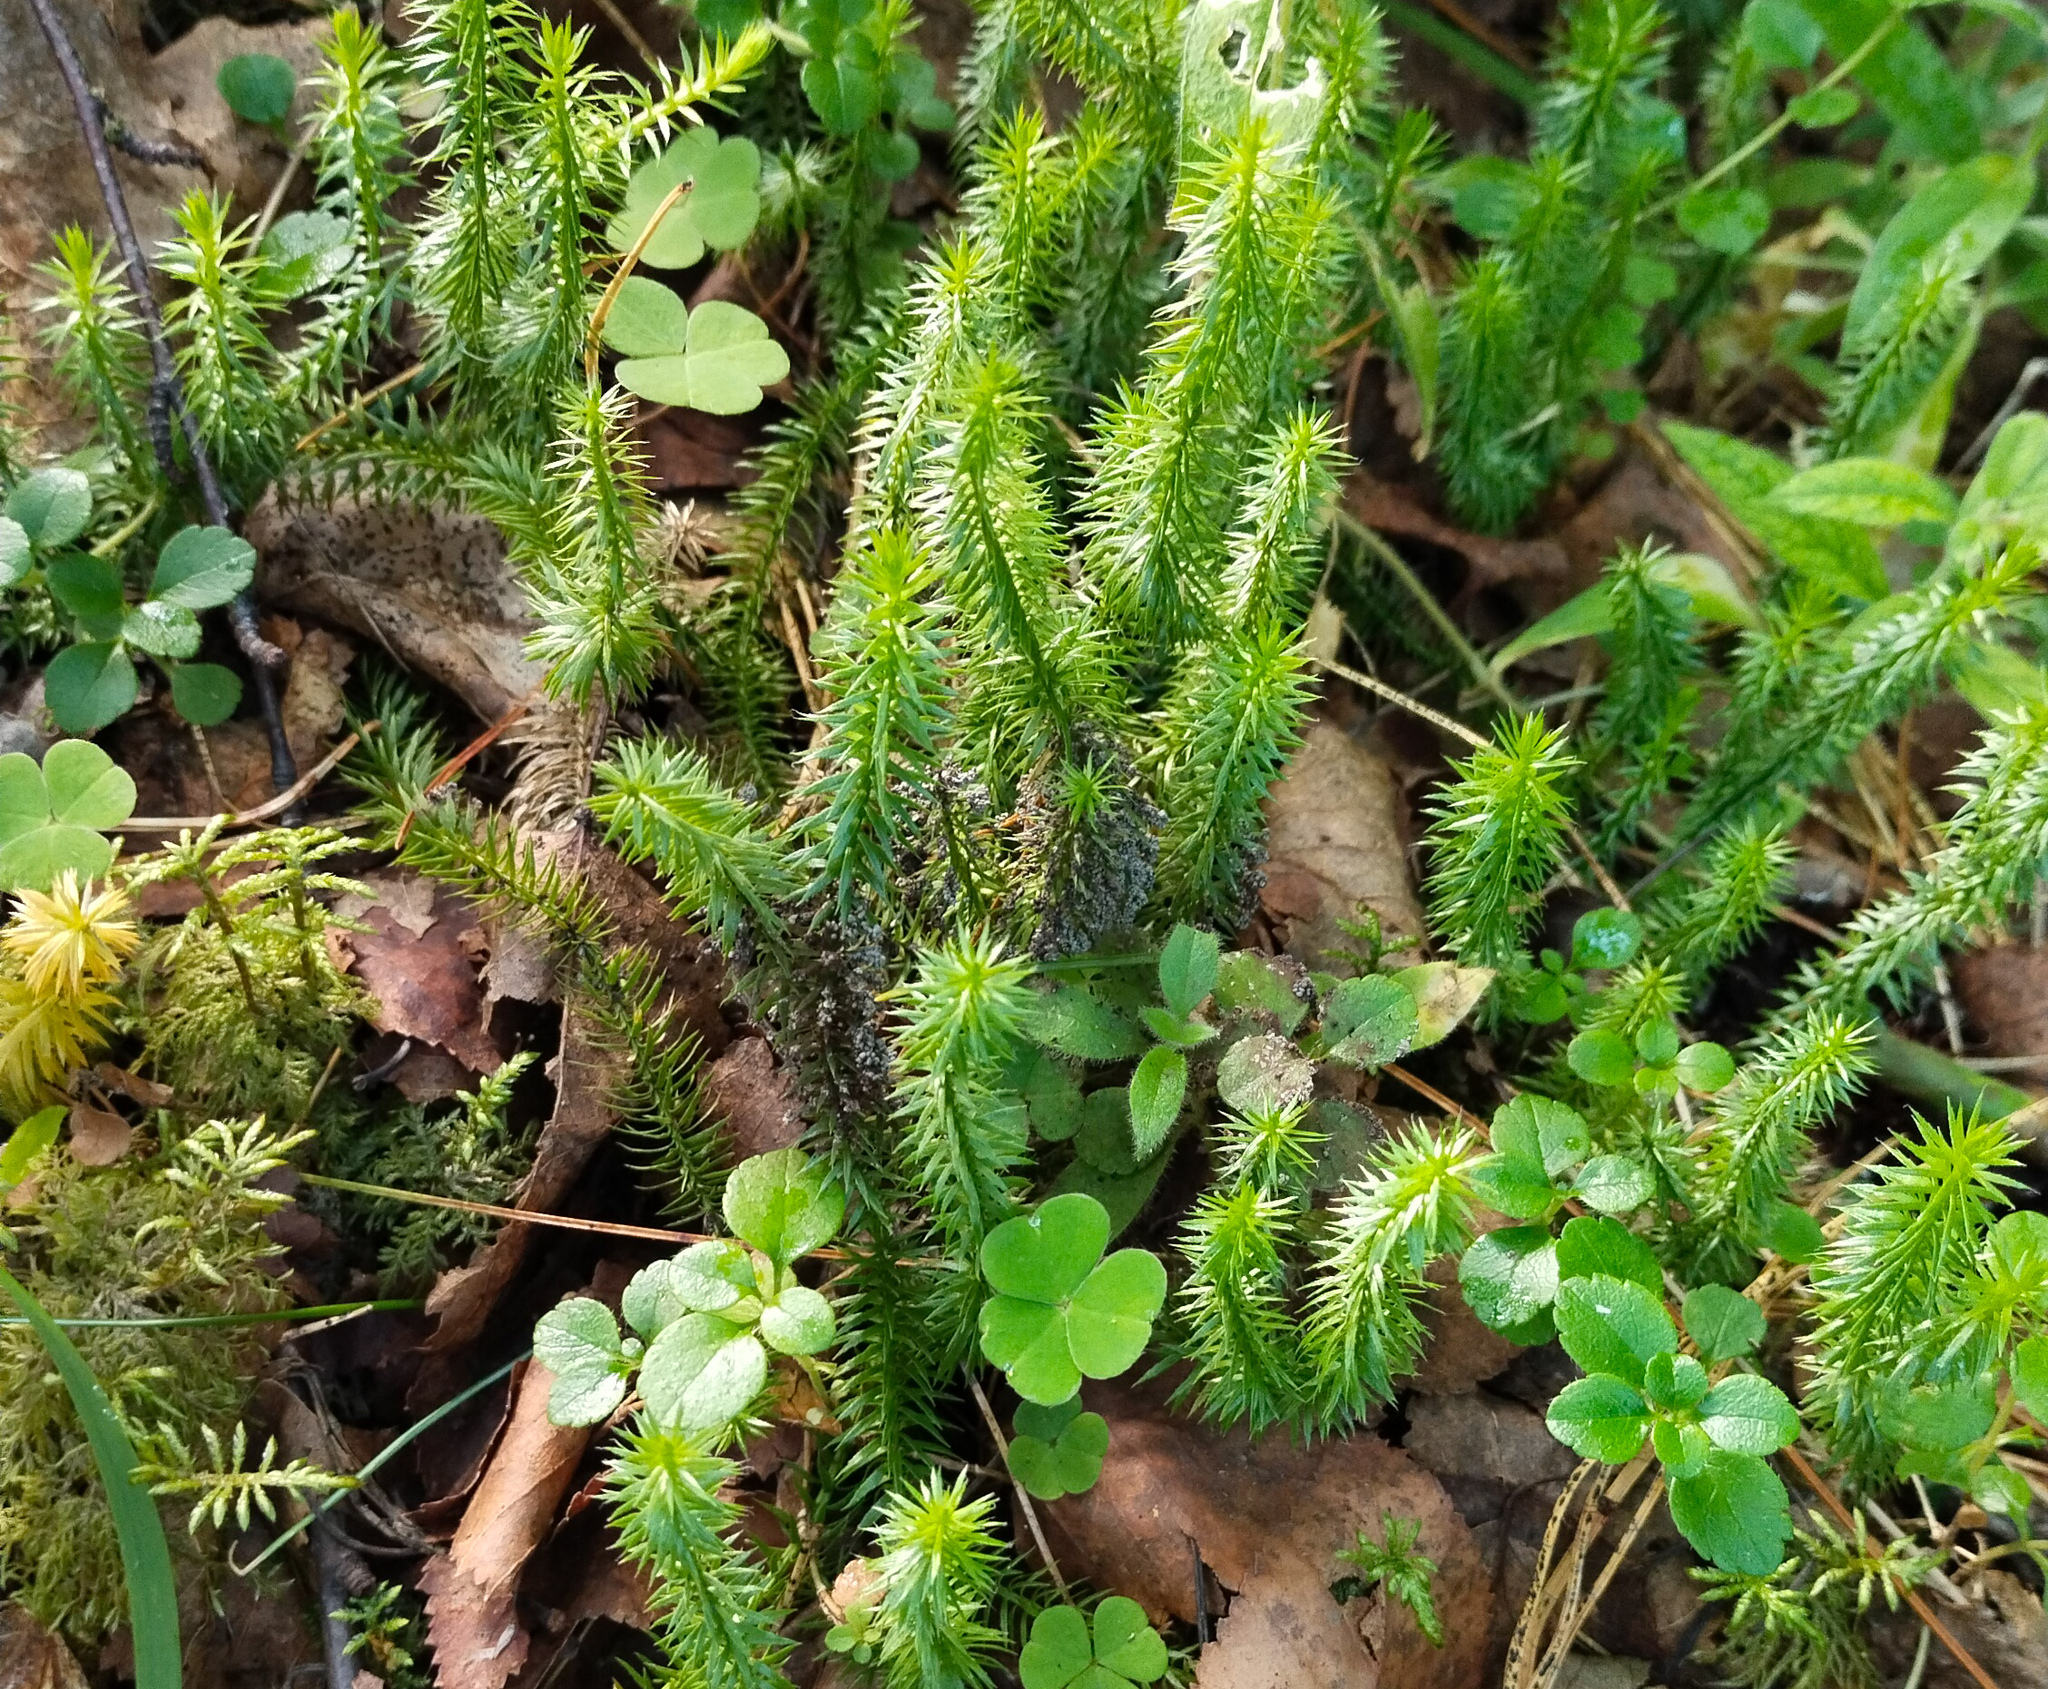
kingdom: Plantae
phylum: Tracheophyta
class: Lycopodiopsida
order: Lycopodiales
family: Lycopodiaceae
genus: Spinulum
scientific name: Spinulum annotinum
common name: Interrupted club-moss
